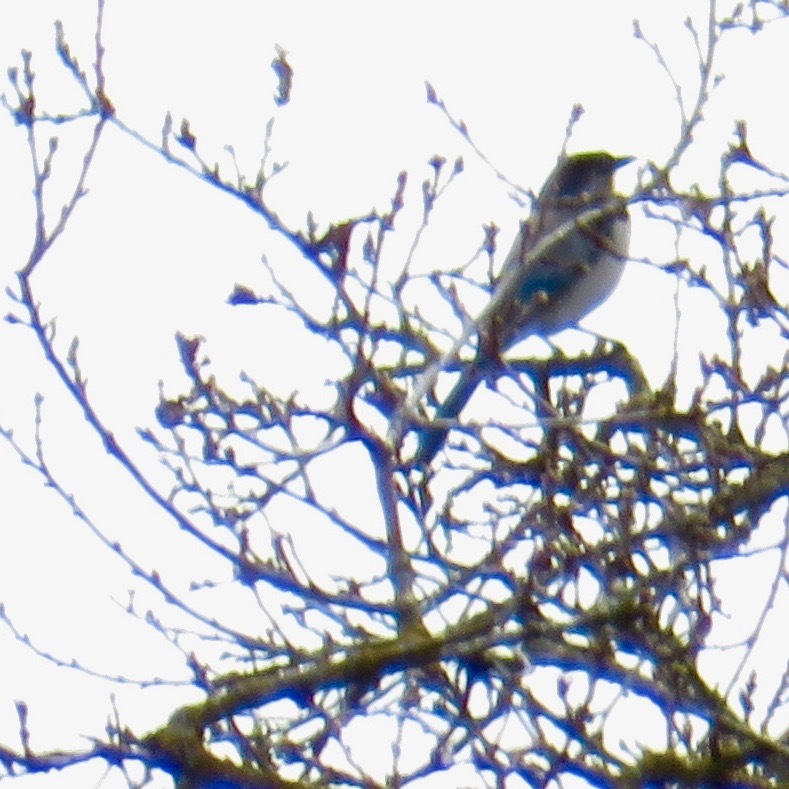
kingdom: Animalia
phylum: Chordata
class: Aves
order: Passeriformes
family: Corvidae
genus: Aphelocoma
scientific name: Aphelocoma californica
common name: California scrub-jay
